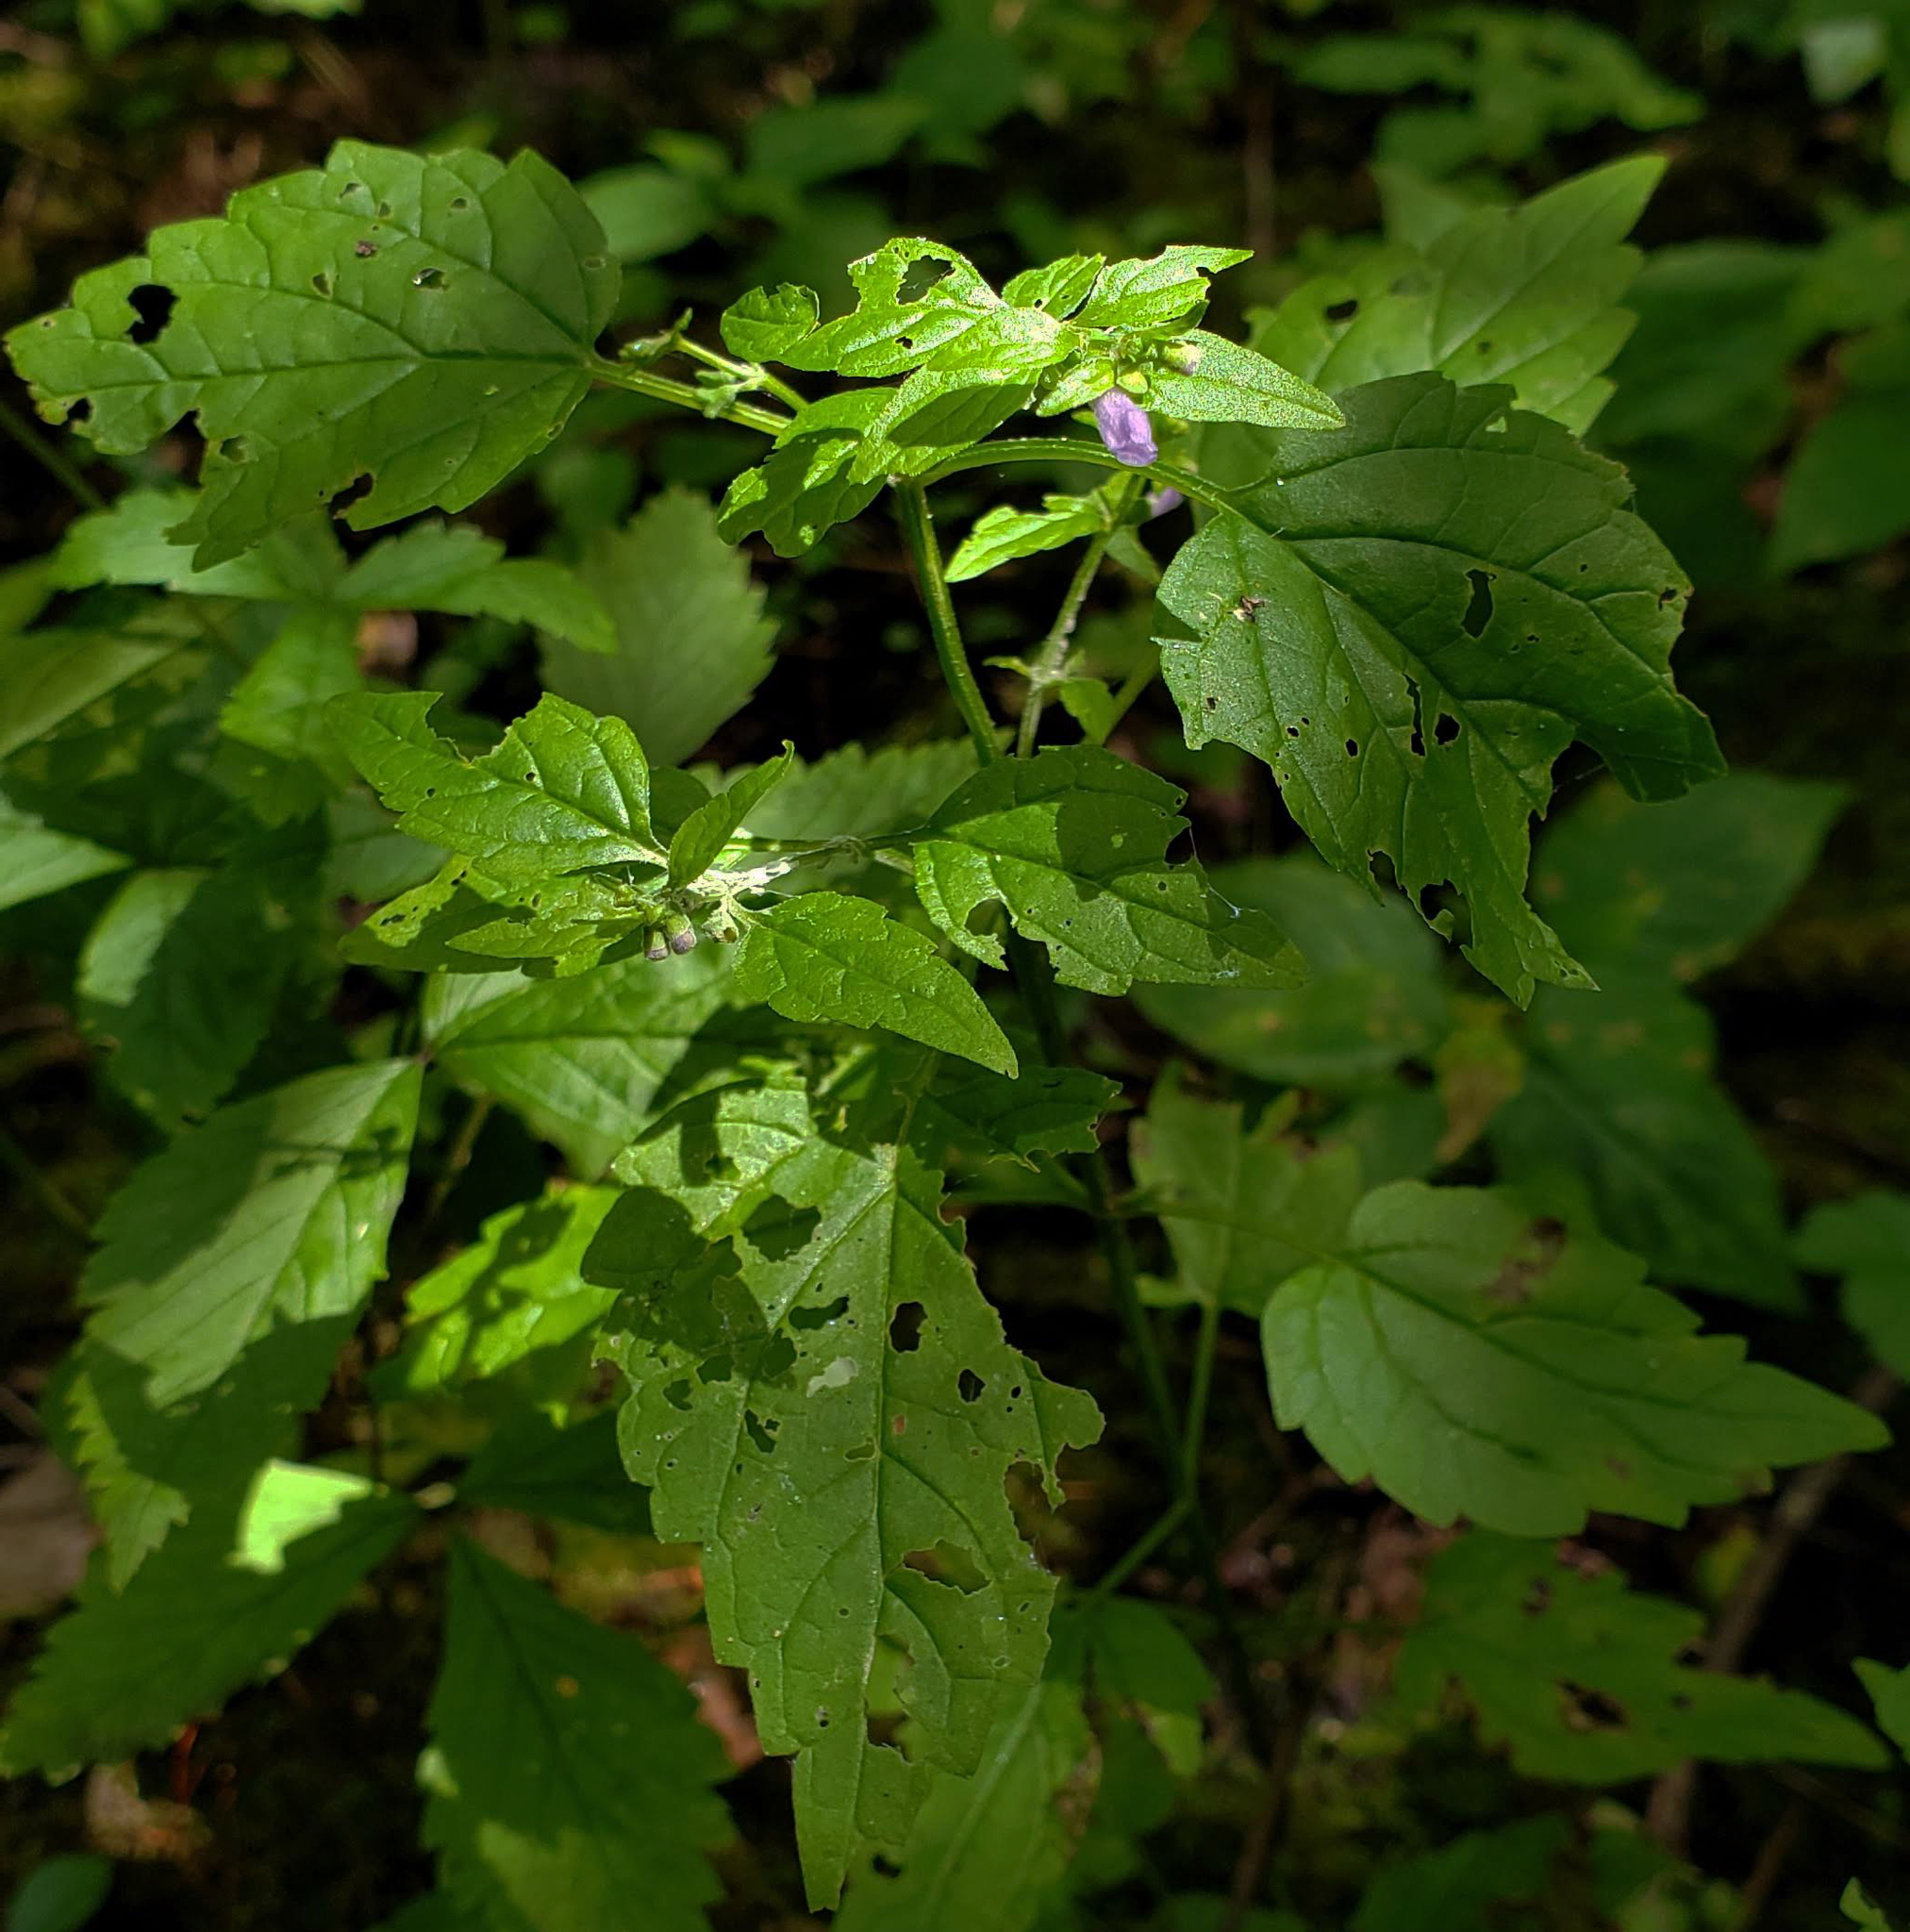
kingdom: Plantae
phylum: Tracheophyta
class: Magnoliopsida
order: Lamiales
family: Lamiaceae
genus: Scutellaria
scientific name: Scutellaria lateriflora
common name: Blue skullcap
